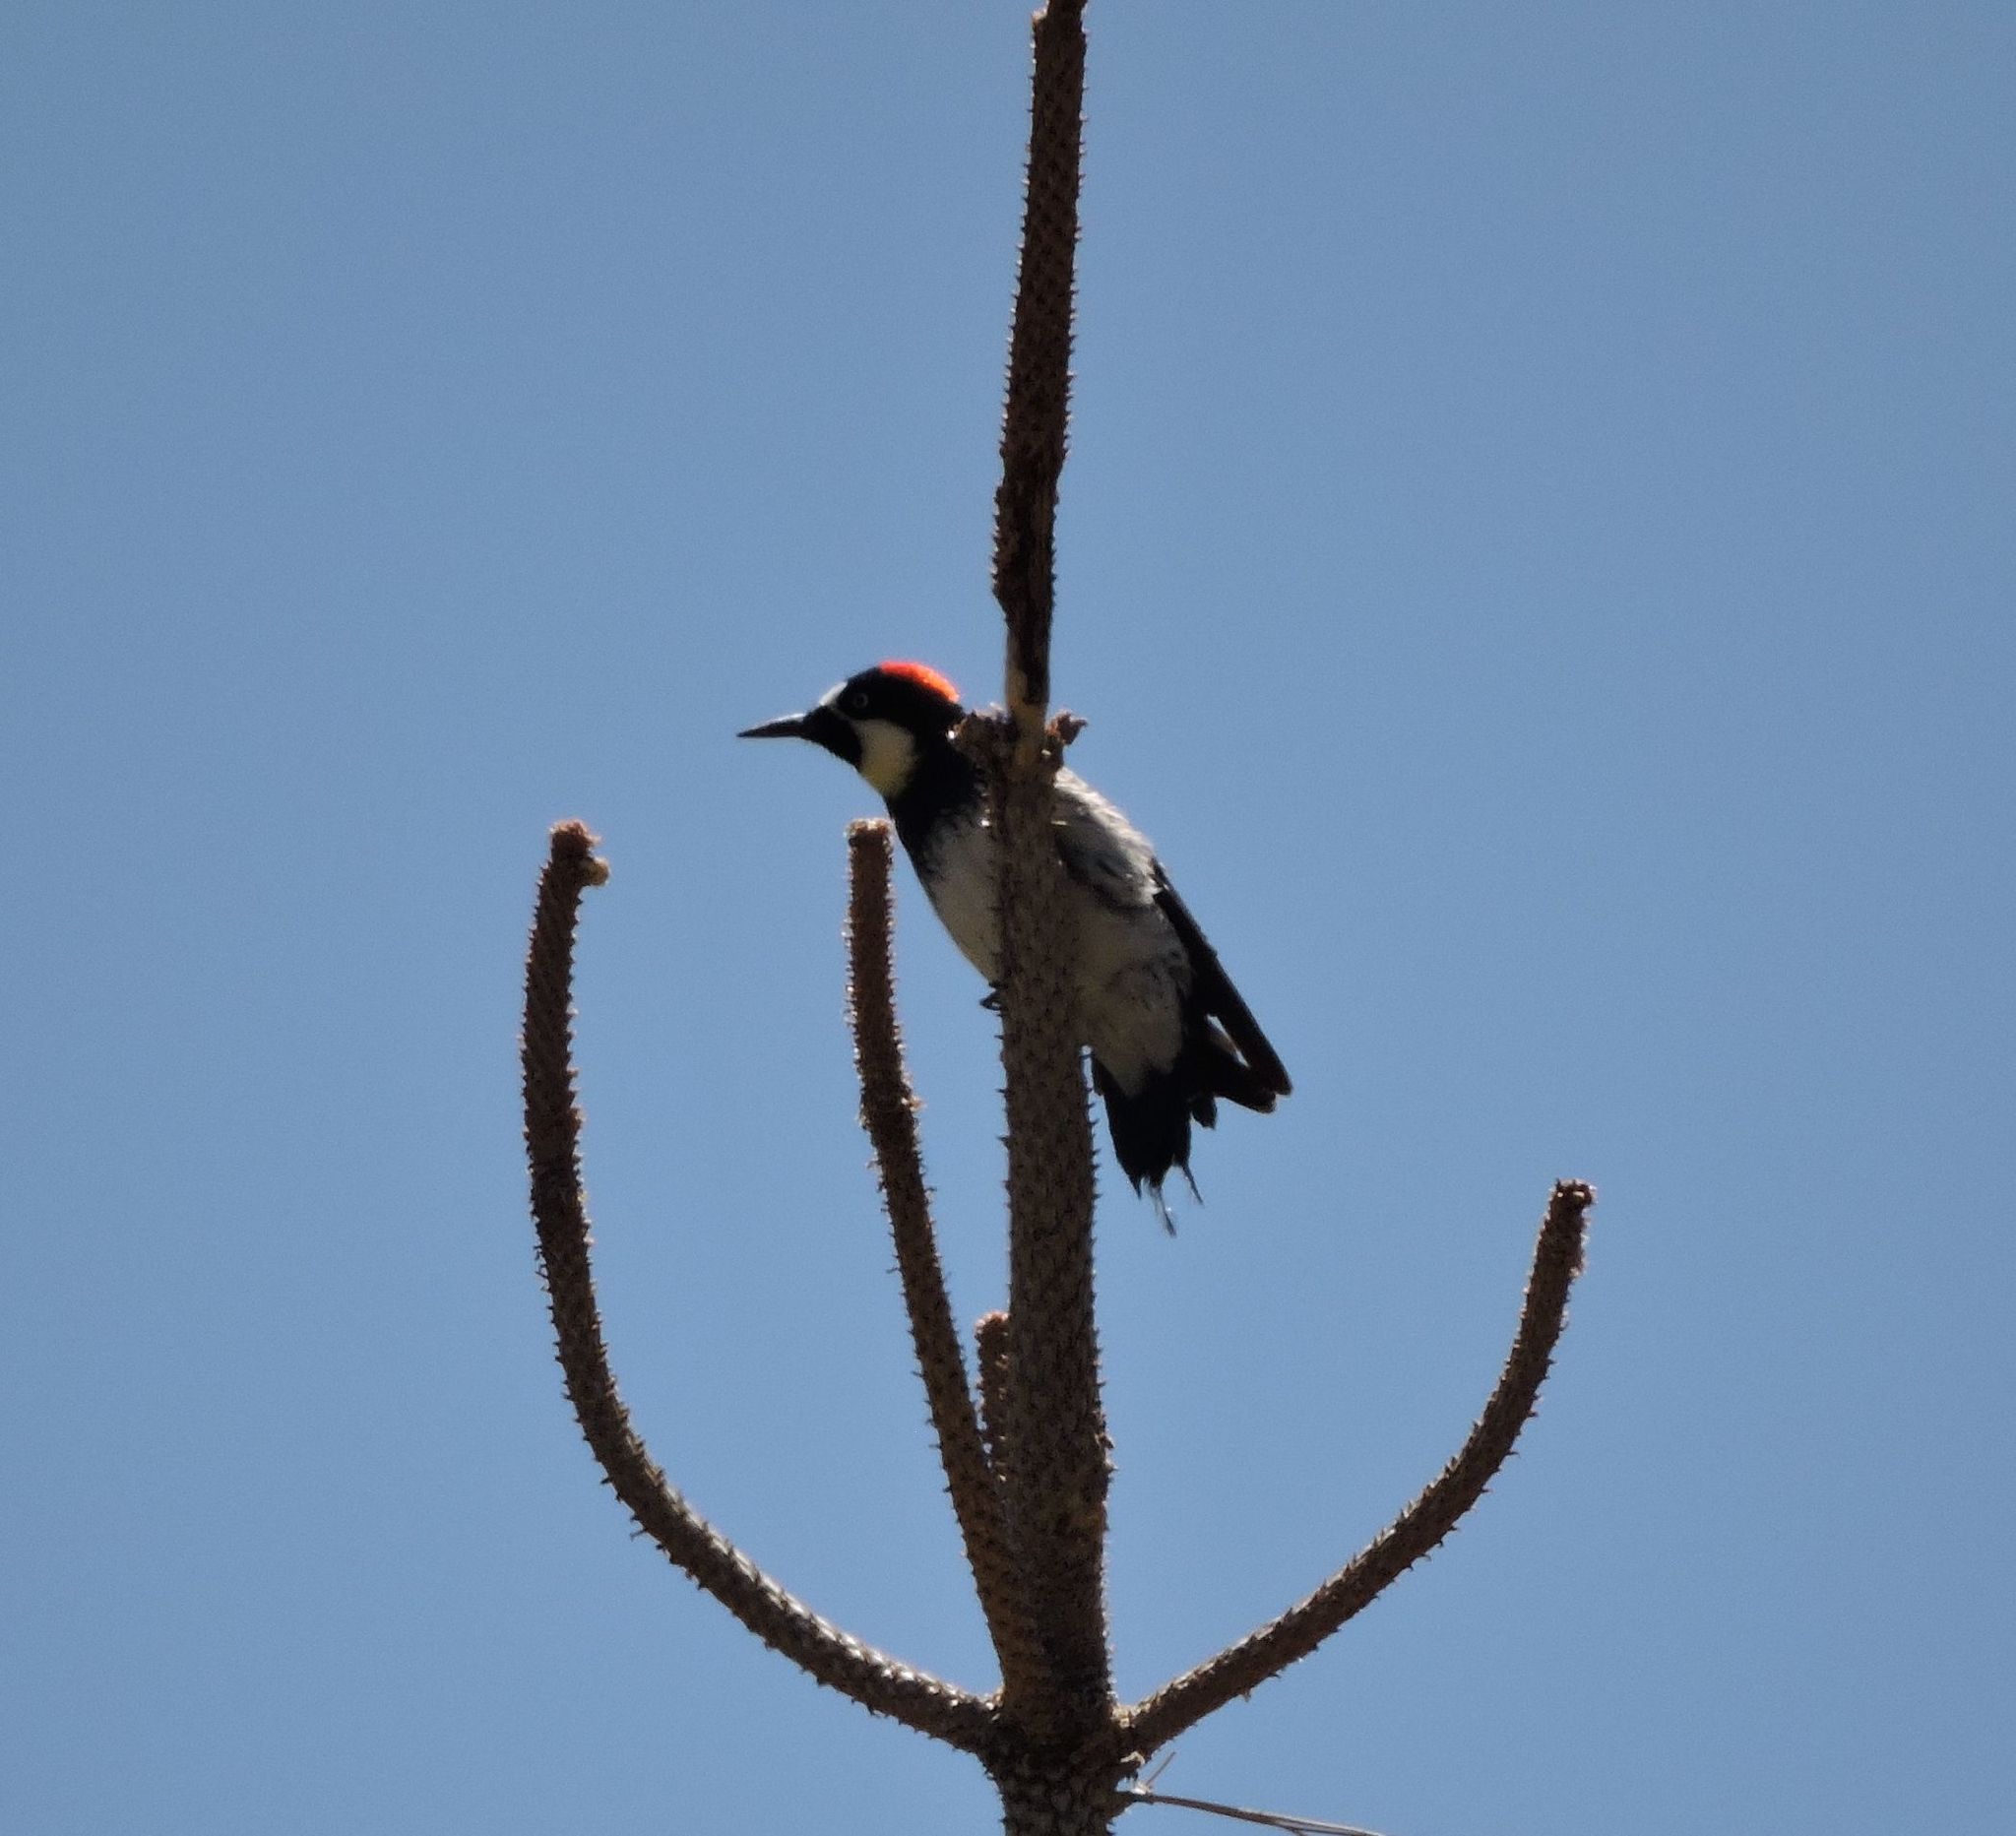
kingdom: Animalia
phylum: Chordata
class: Aves
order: Piciformes
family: Picidae
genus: Melanerpes
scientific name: Melanerpes formicivorus
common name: Acorn woodpecker
